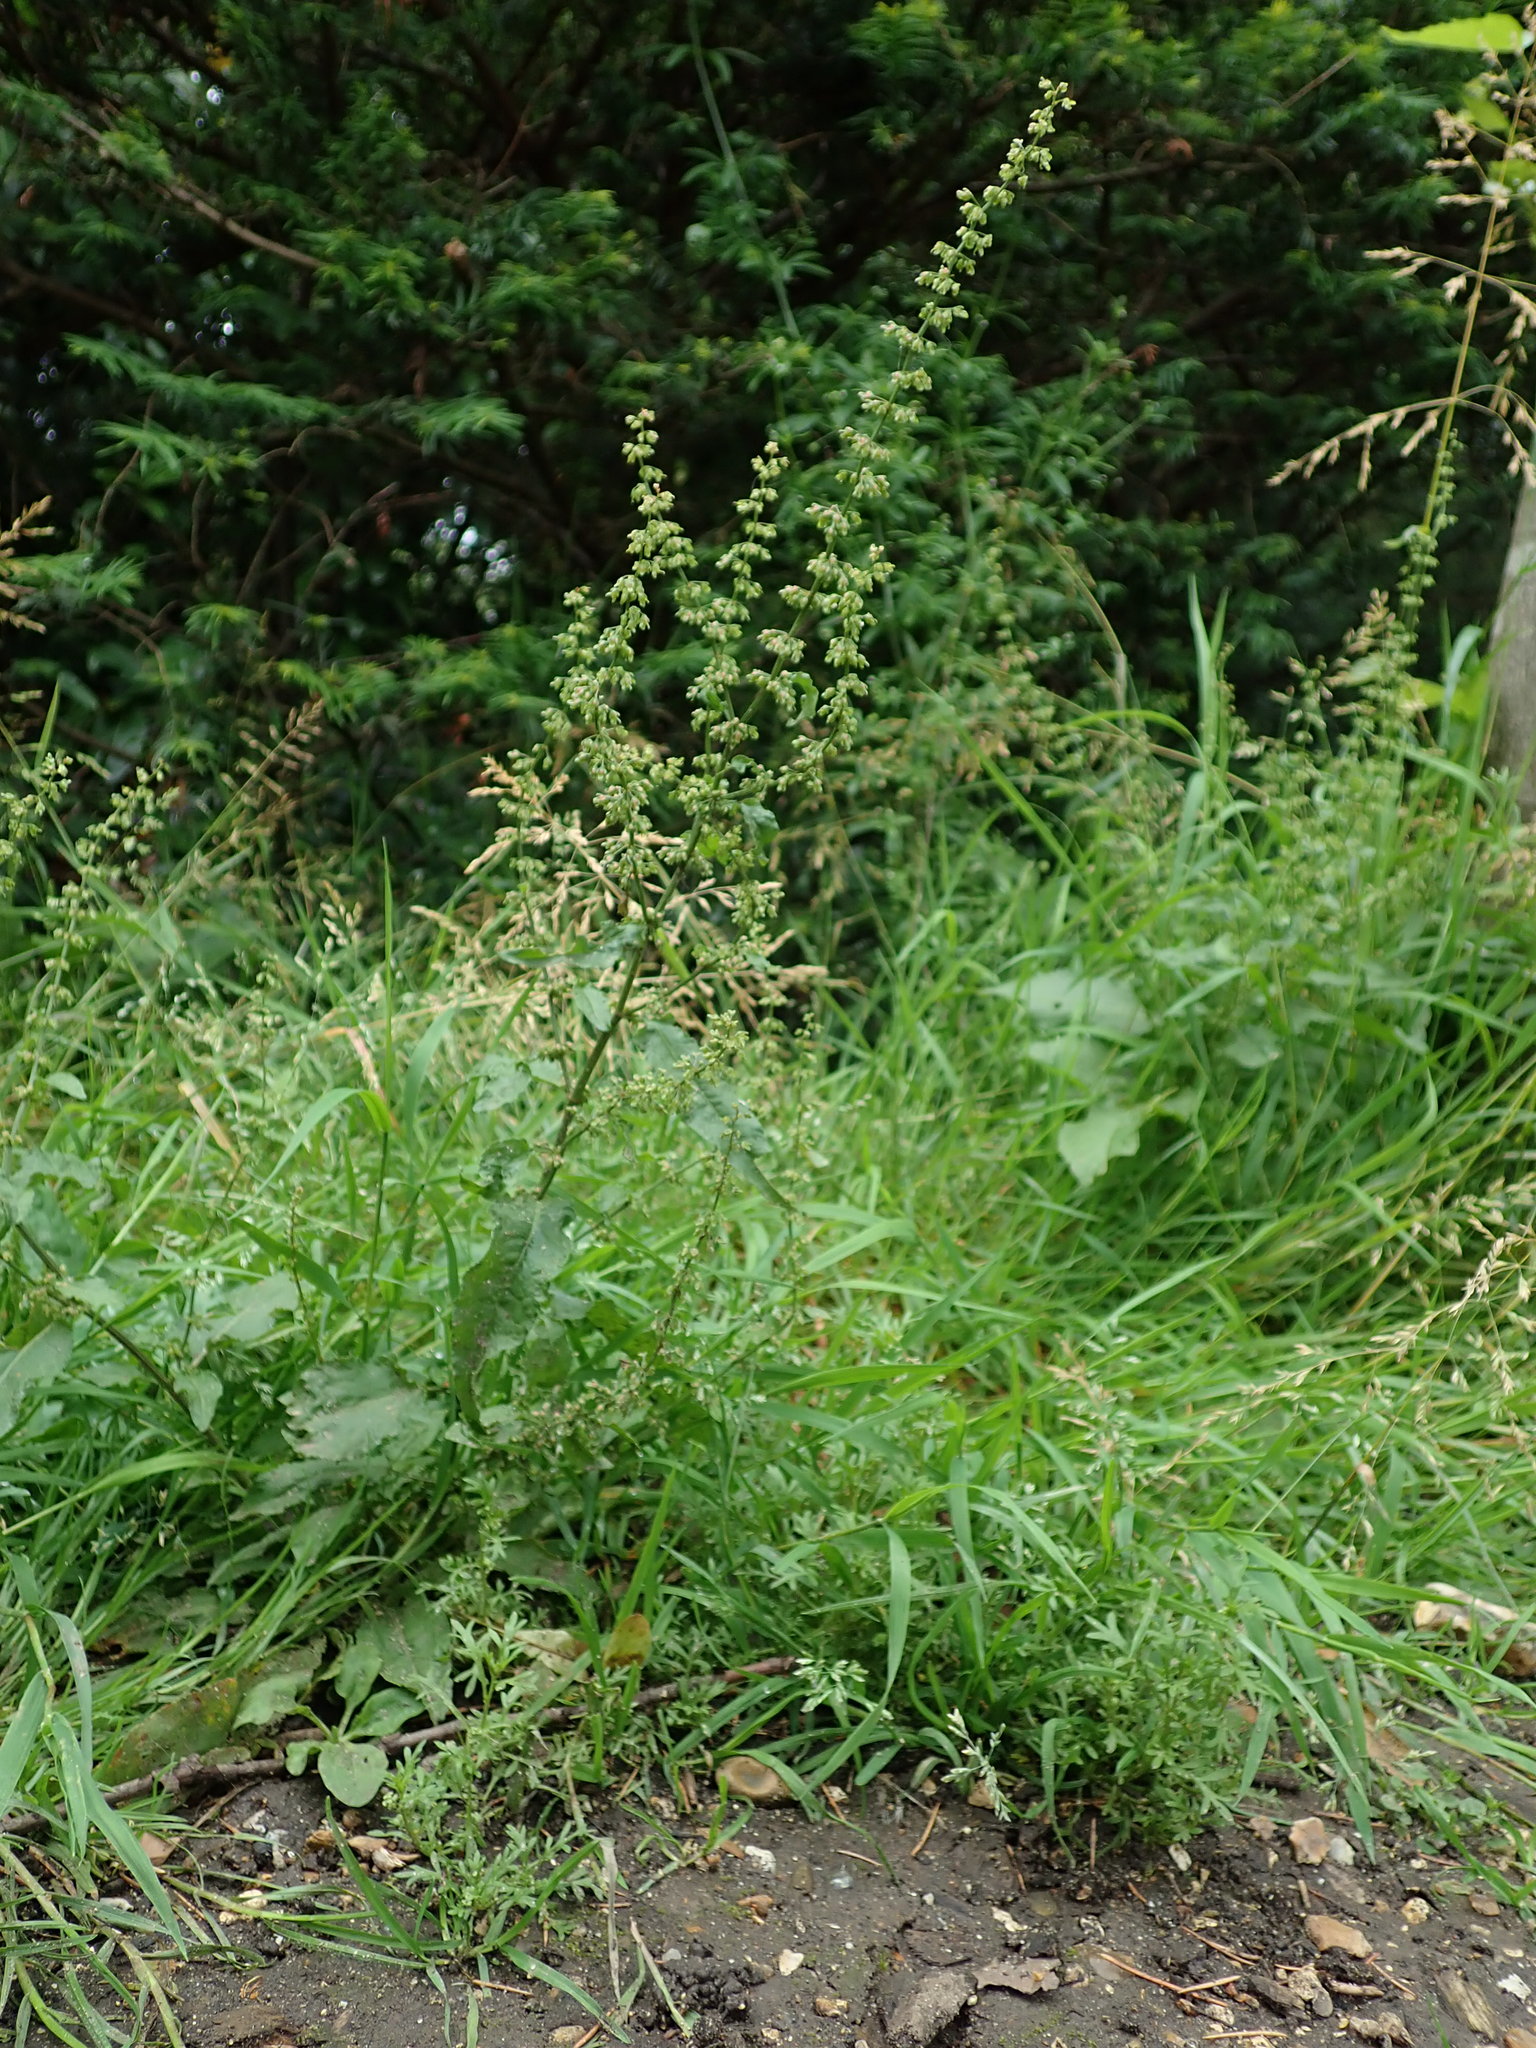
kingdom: Plantae
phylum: Tracheophyta
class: Magnoliopsida
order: Caryophyllales
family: Polygonaceae
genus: Rumex
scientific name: Rumex sanguineus
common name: Wood dock
